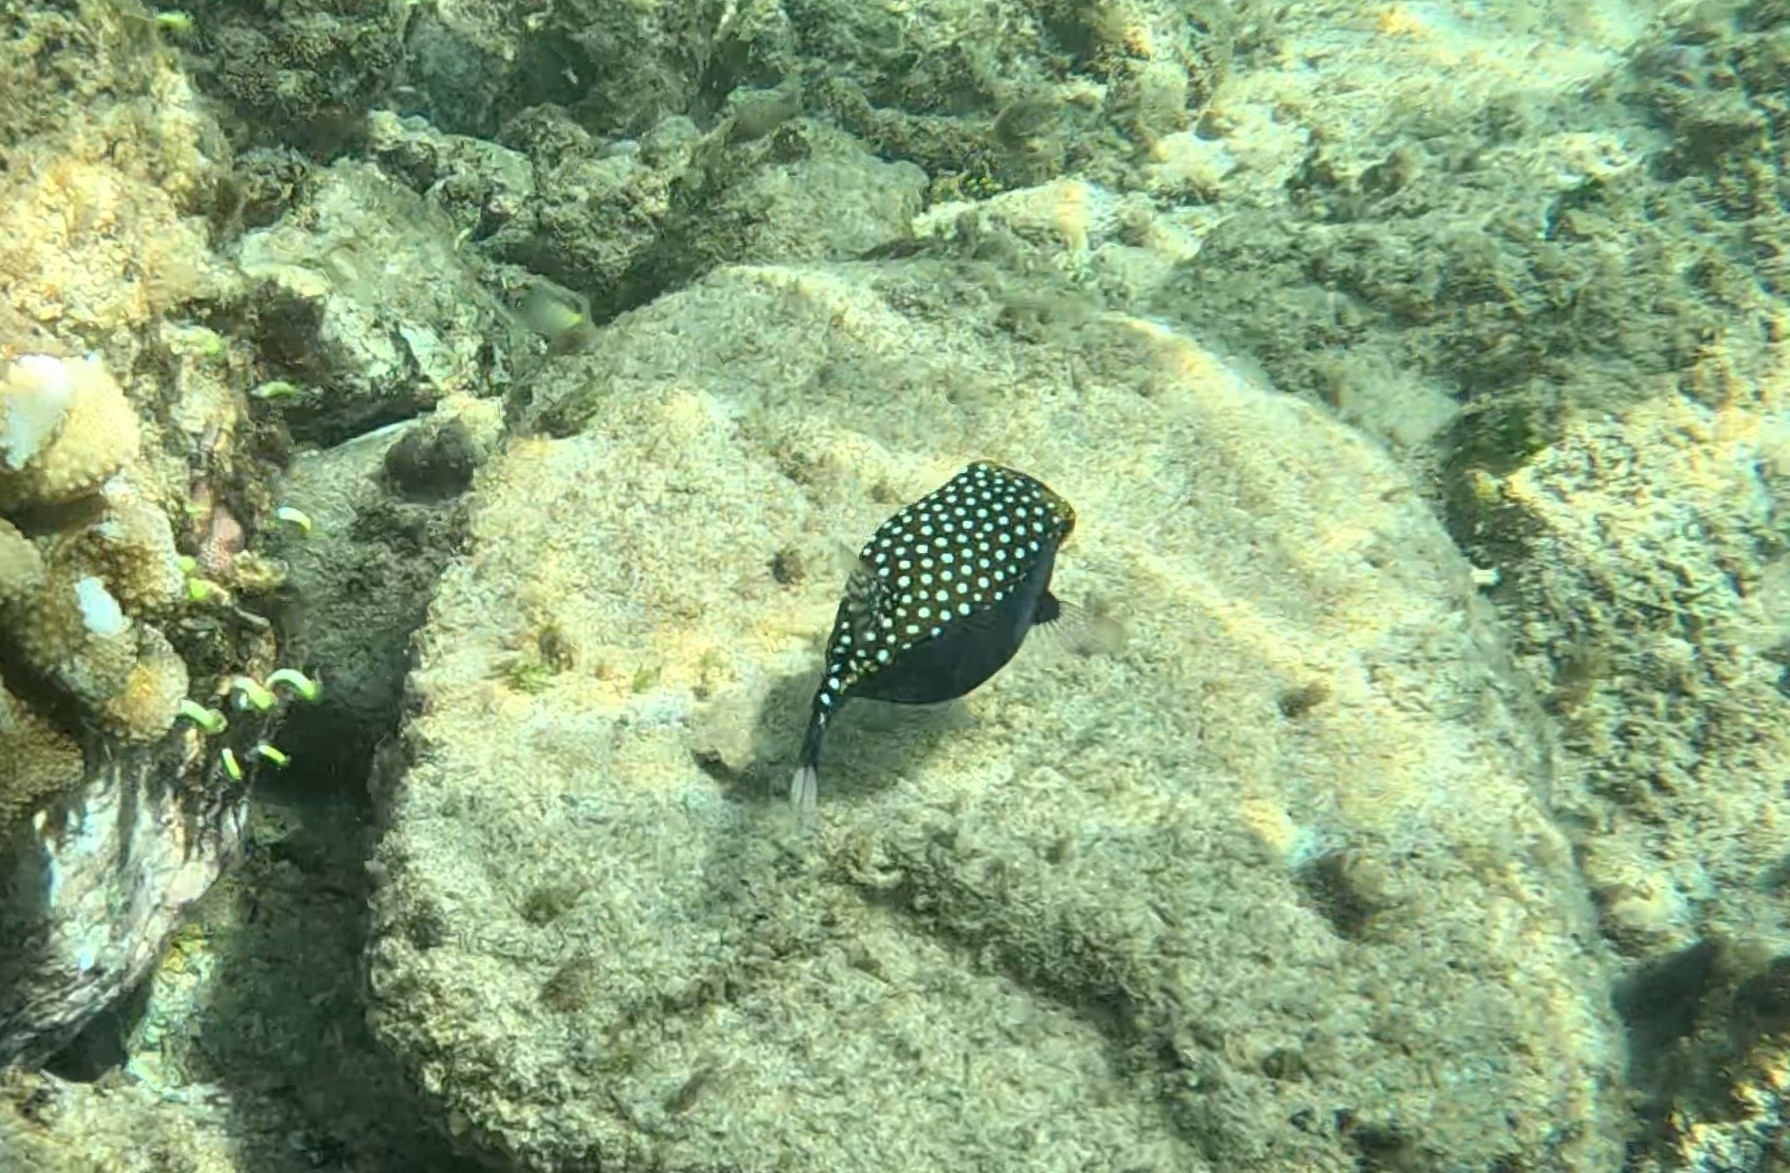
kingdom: Animalia
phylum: Chordata
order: Tetraodontiformes
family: Ostraciidae
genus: Ostracion
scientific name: Ostracion meleagris
